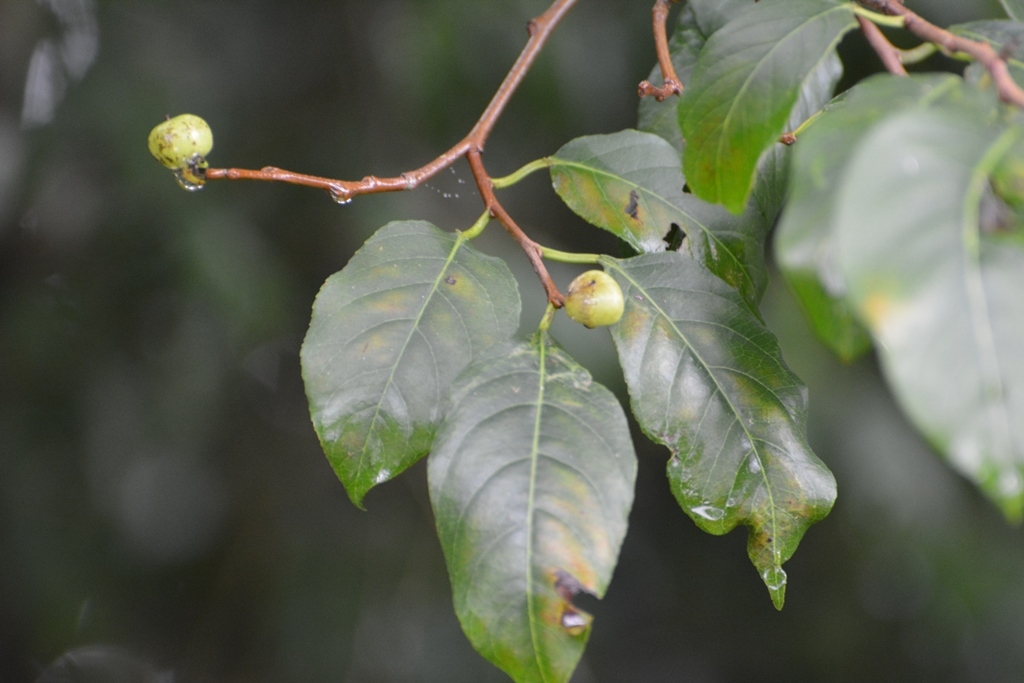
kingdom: Plantae
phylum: Tracheophyta
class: Magnoliopsida
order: Malpighiales
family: Euphorbiaceae
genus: Sebastiania
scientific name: Sebastiania glandulosa
